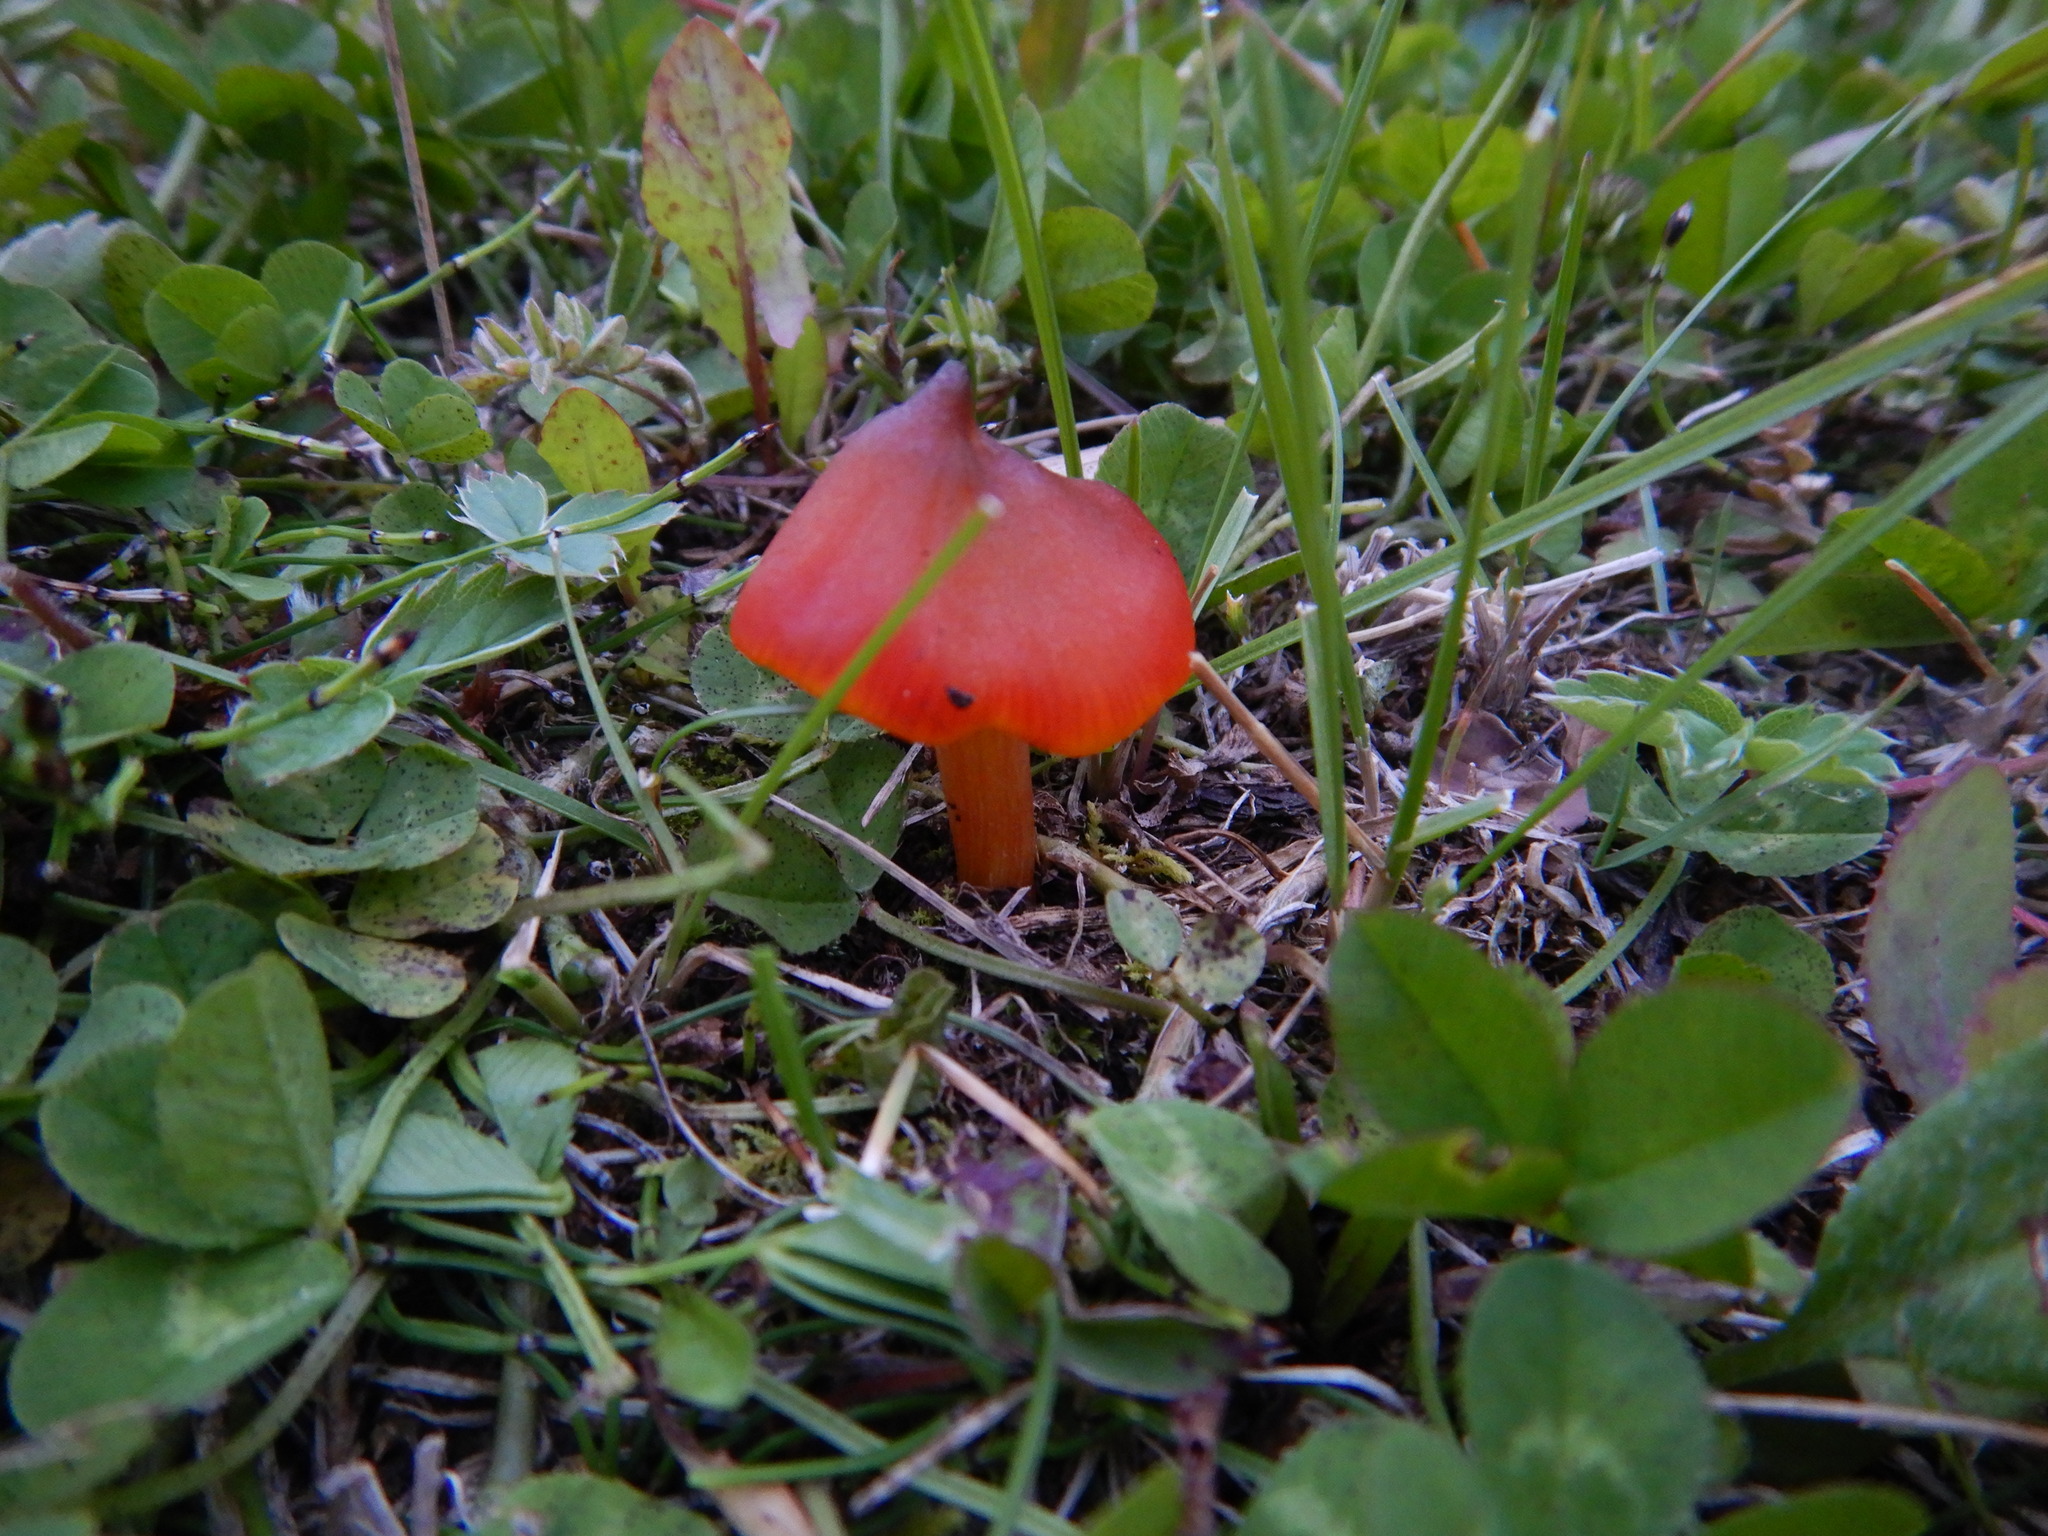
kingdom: Fungi
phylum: Basidiomycota
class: Agaricomycetes
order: Agaricales
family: Hygrophoraceae
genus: Hygrocybe
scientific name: Hygrocybe conica
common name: Blackening wax-cap
